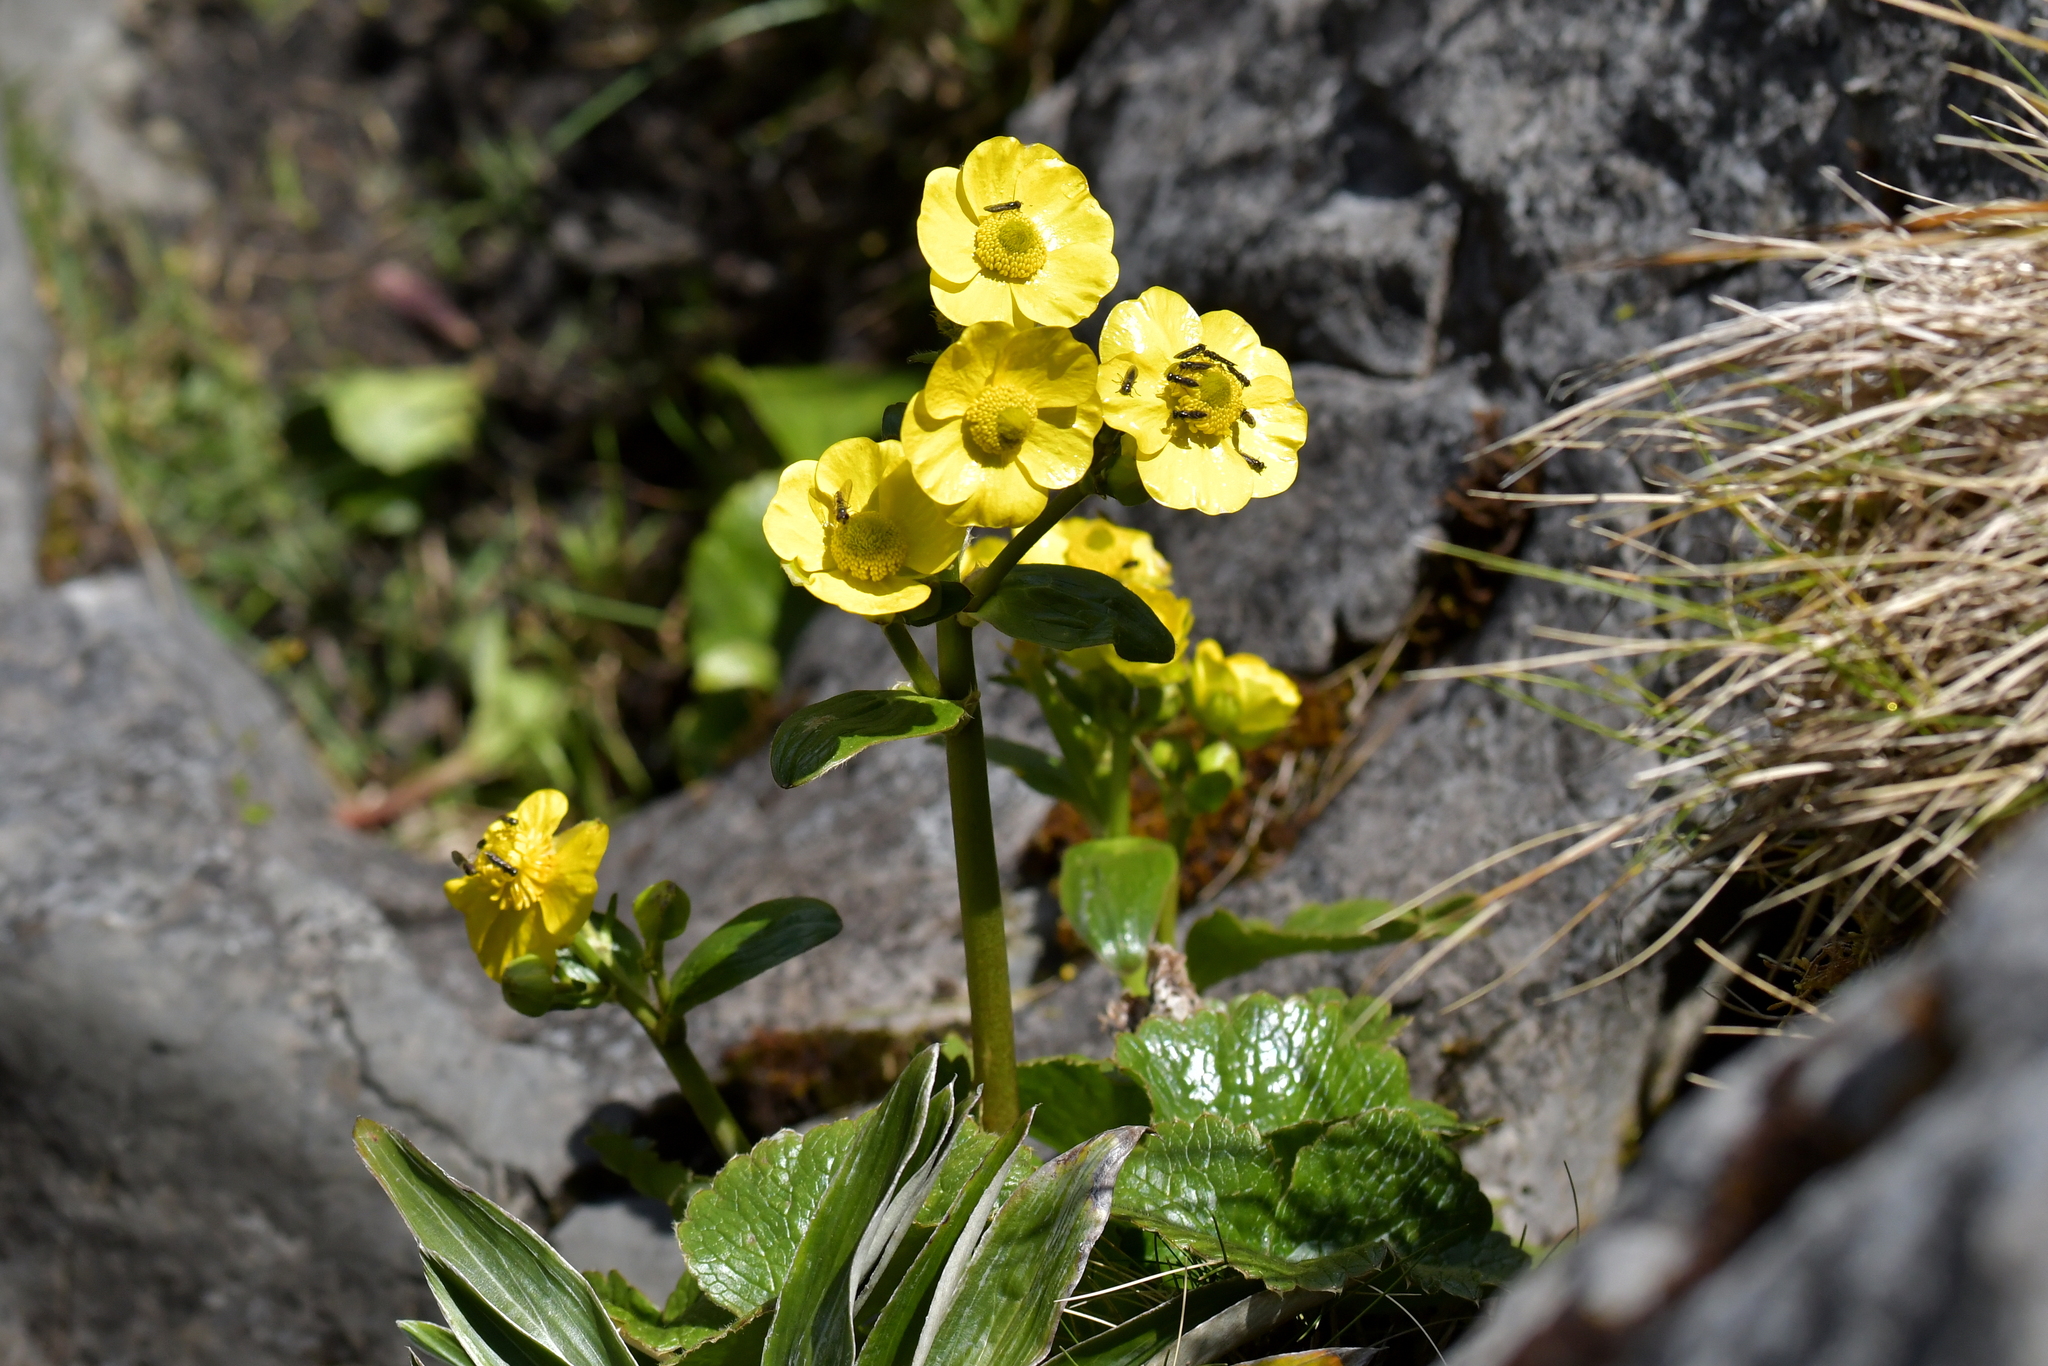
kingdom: Plantae
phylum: Tracheophyta
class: Magnoliopsida
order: Ranunculales
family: Ranunculaceae
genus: Ranunculus
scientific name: Ranunculus insignis
